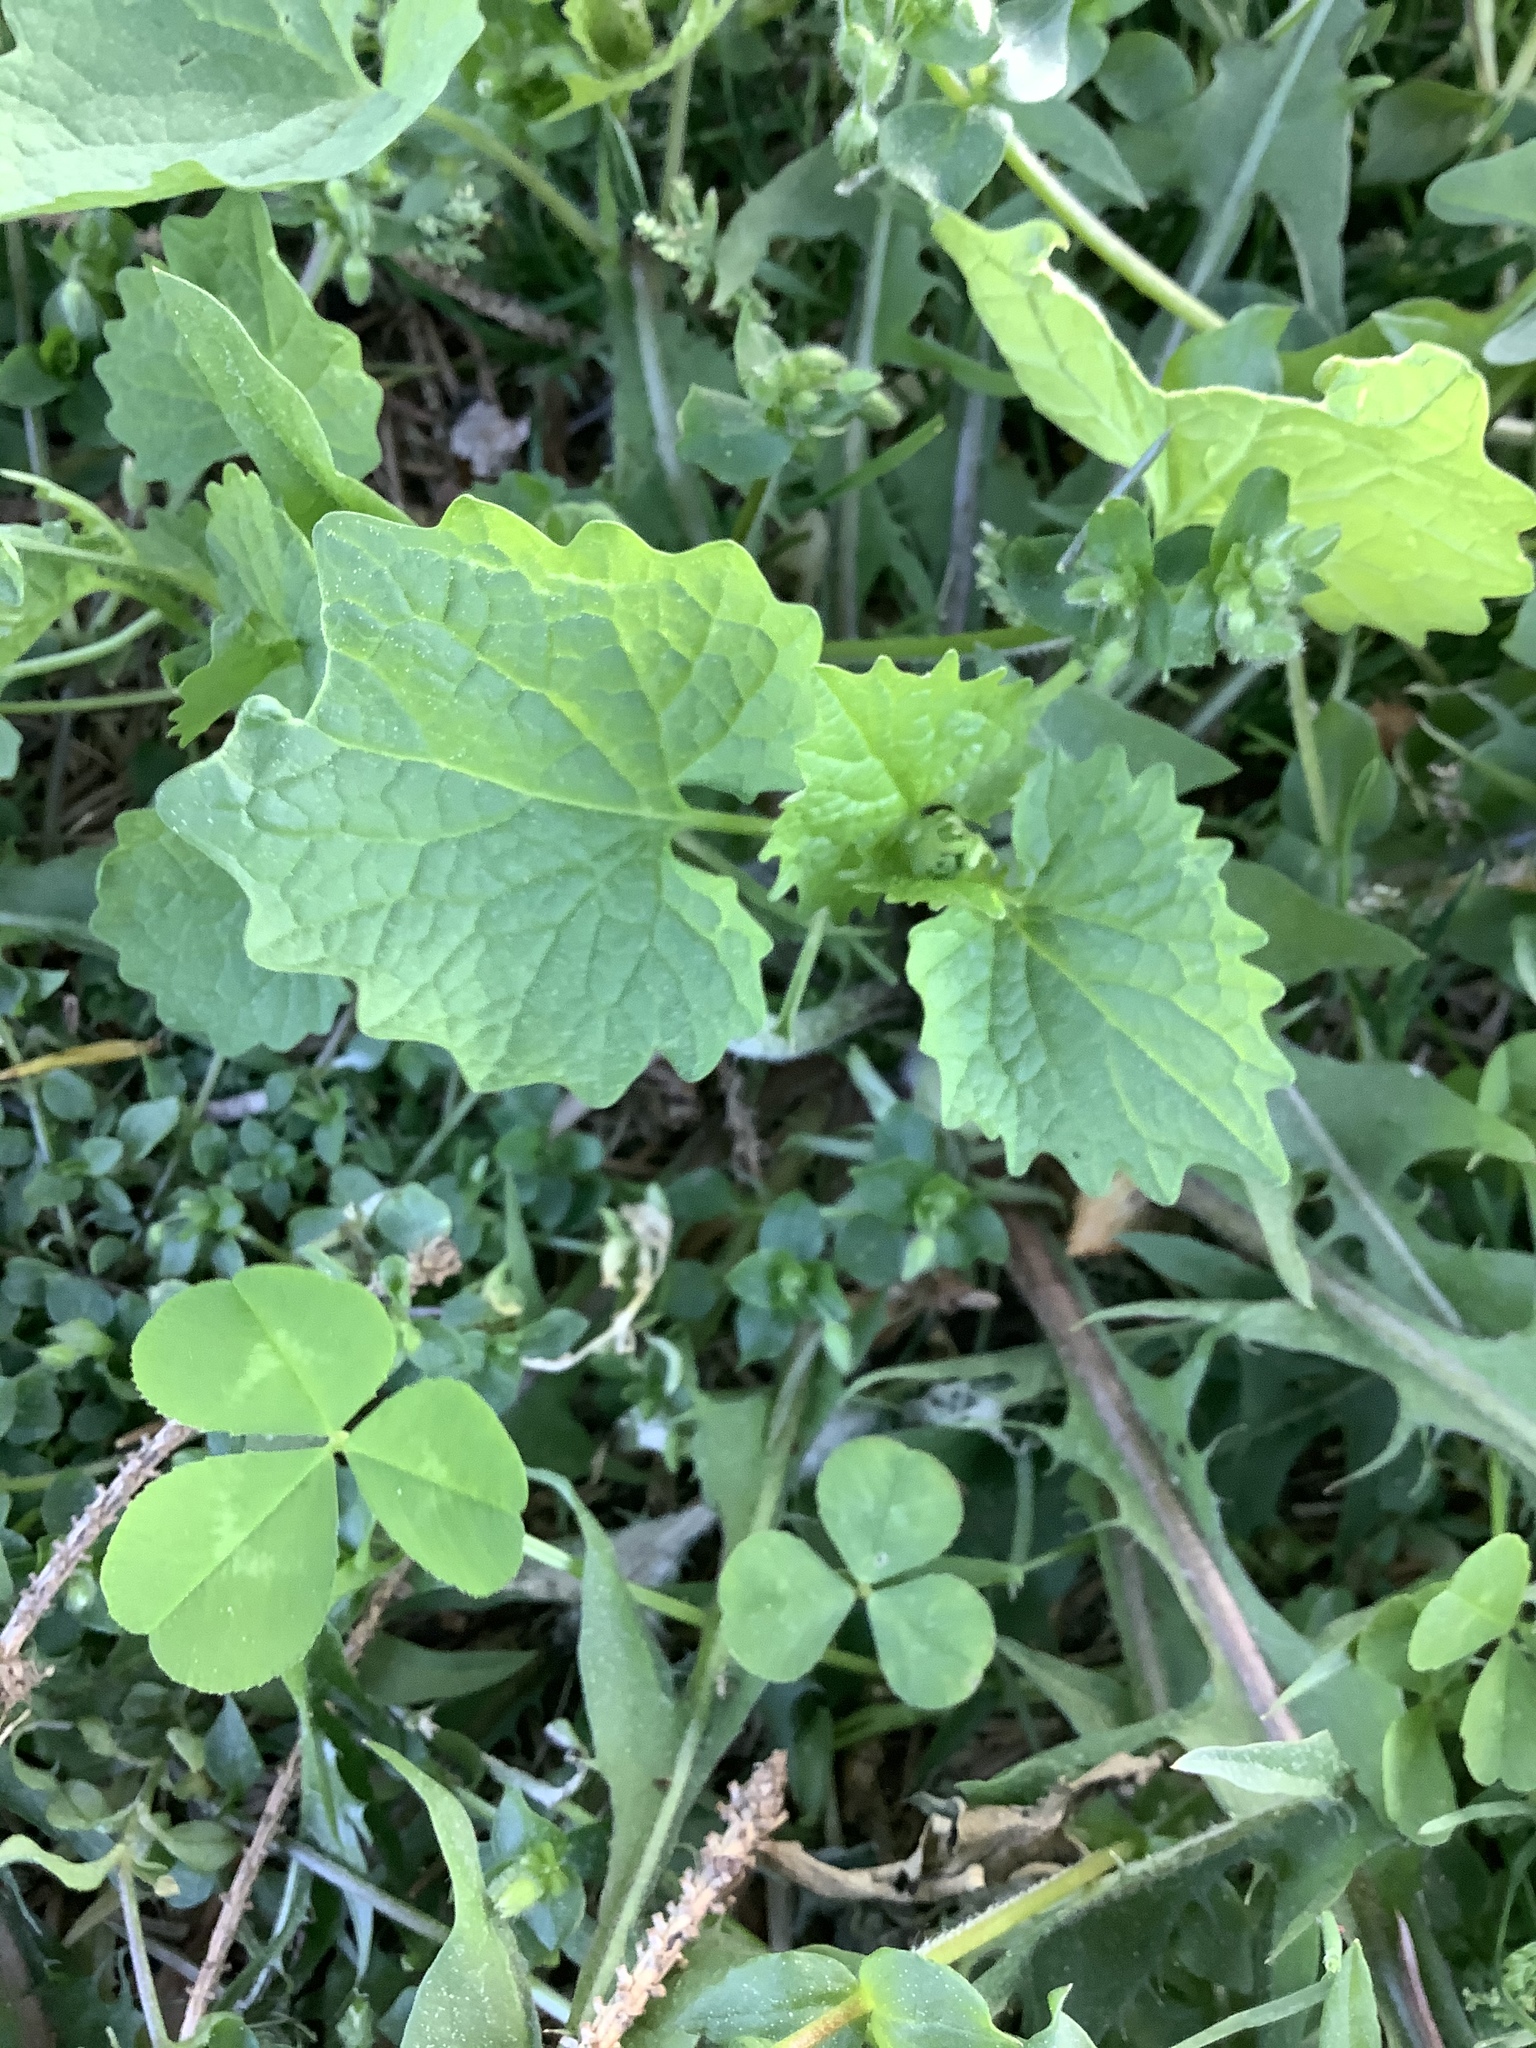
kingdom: Plantae
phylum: Tracheophyta
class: Magnoliopsida
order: Brassicales
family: Brassicaceae
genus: Alliaria
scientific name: Alliaria petiolata
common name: Garlic mustard
